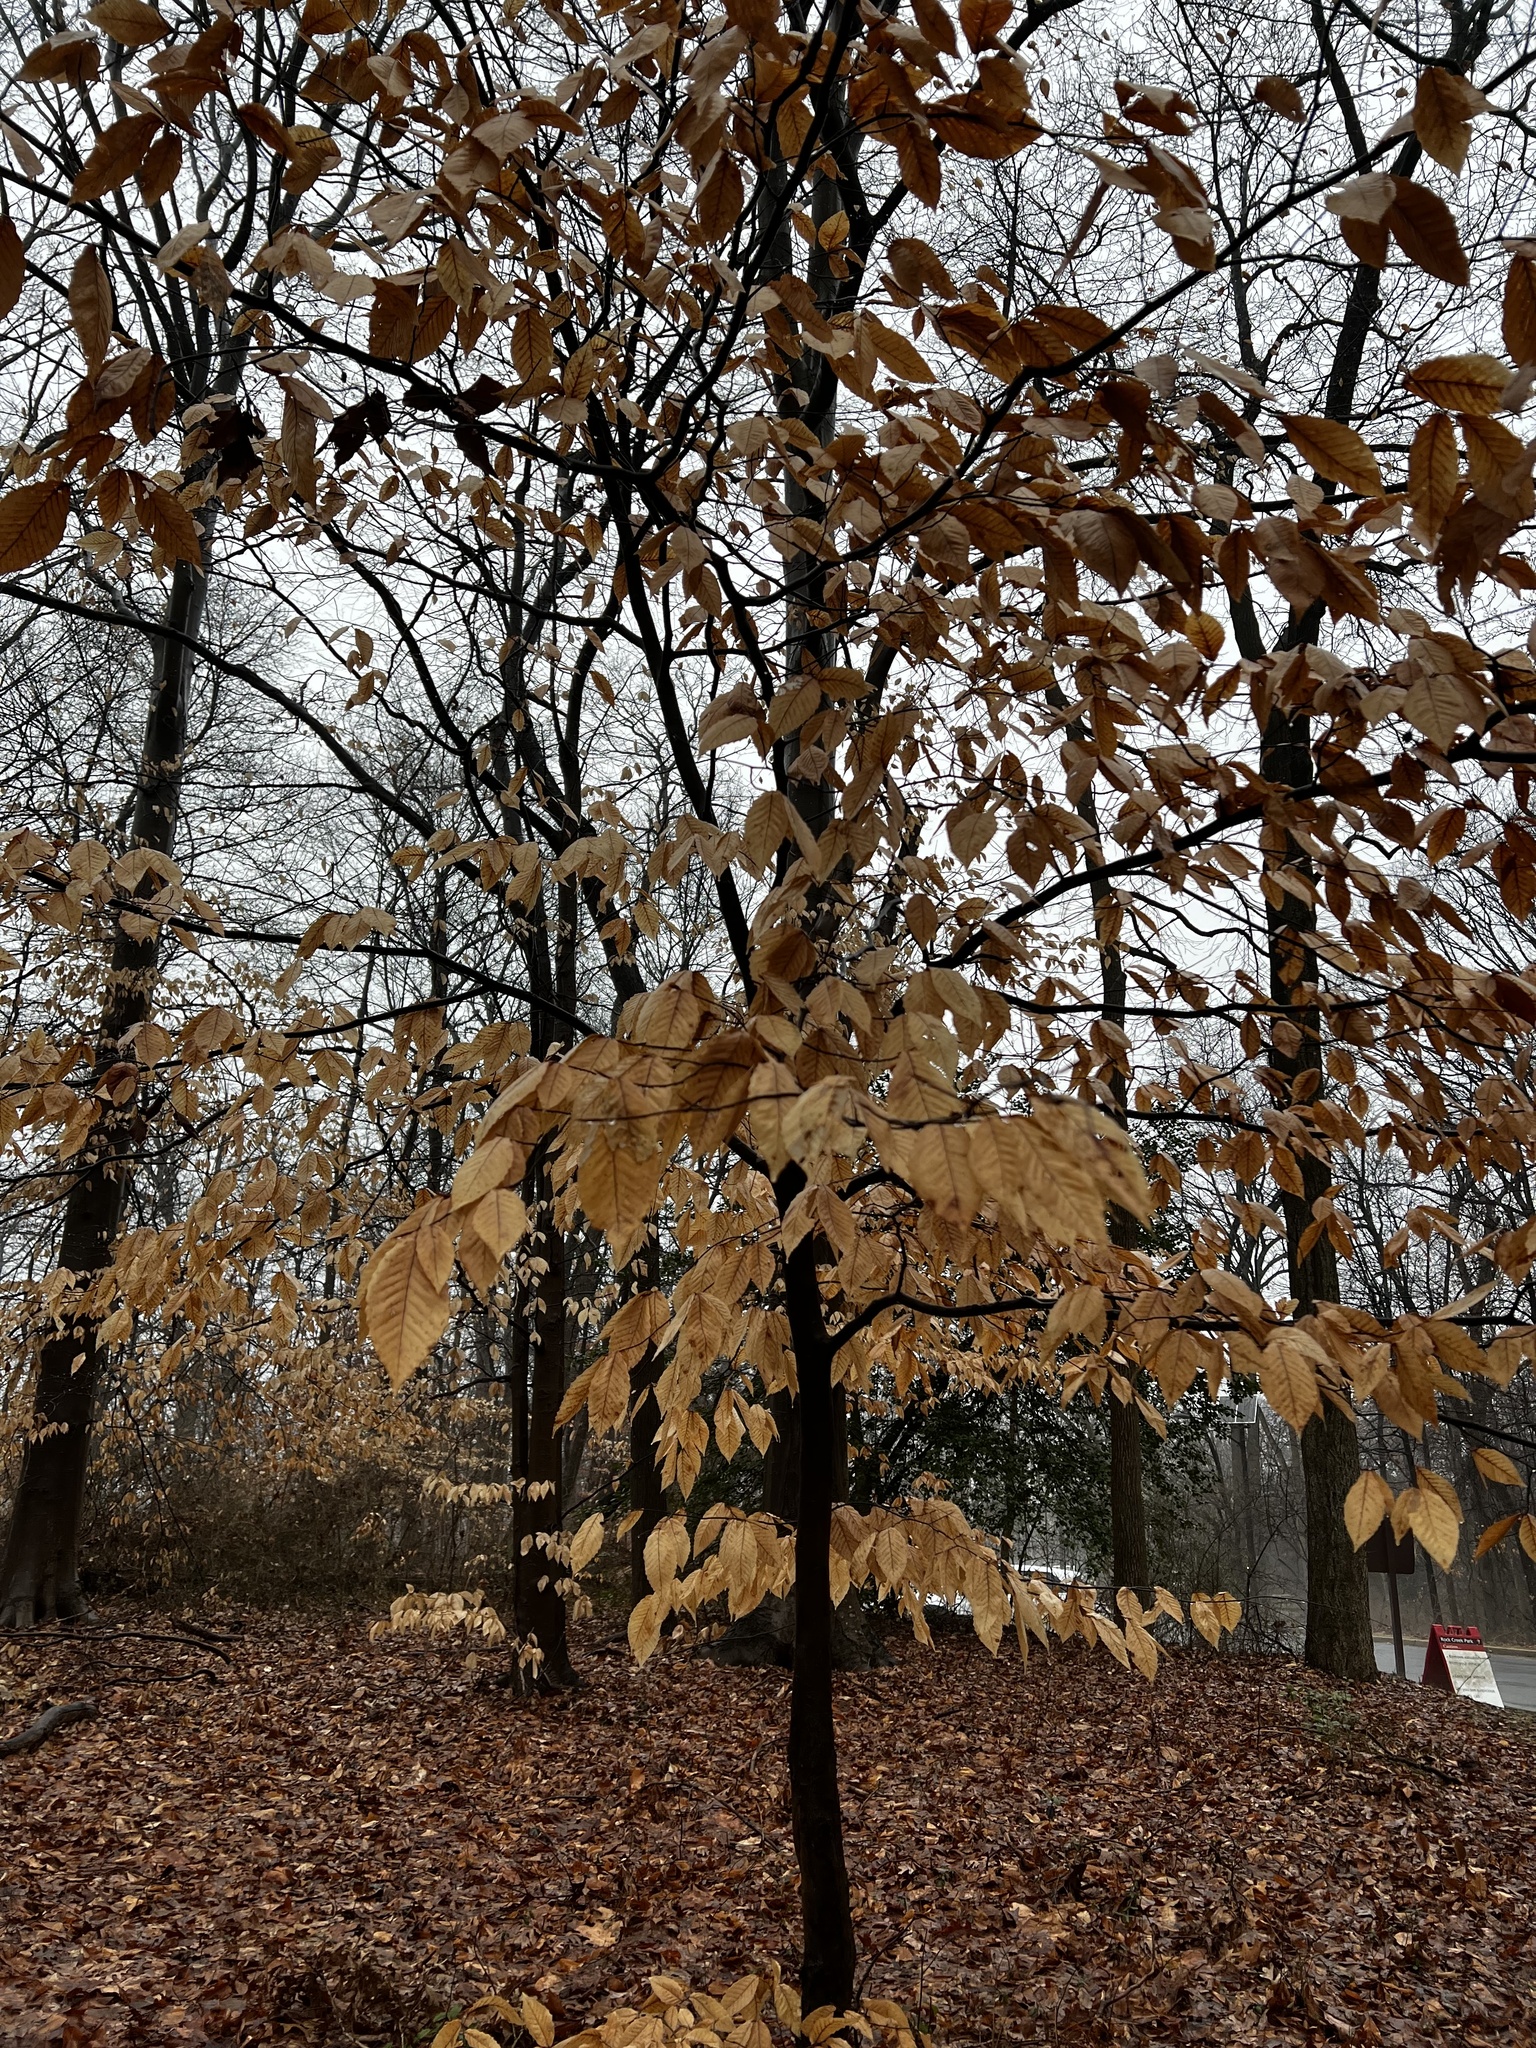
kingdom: Plantae
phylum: Tracheophyta
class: Magnoliopsida
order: Fagales
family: Fagaceae
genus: Fagus
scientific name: Fagus grandifolia
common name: American beech
